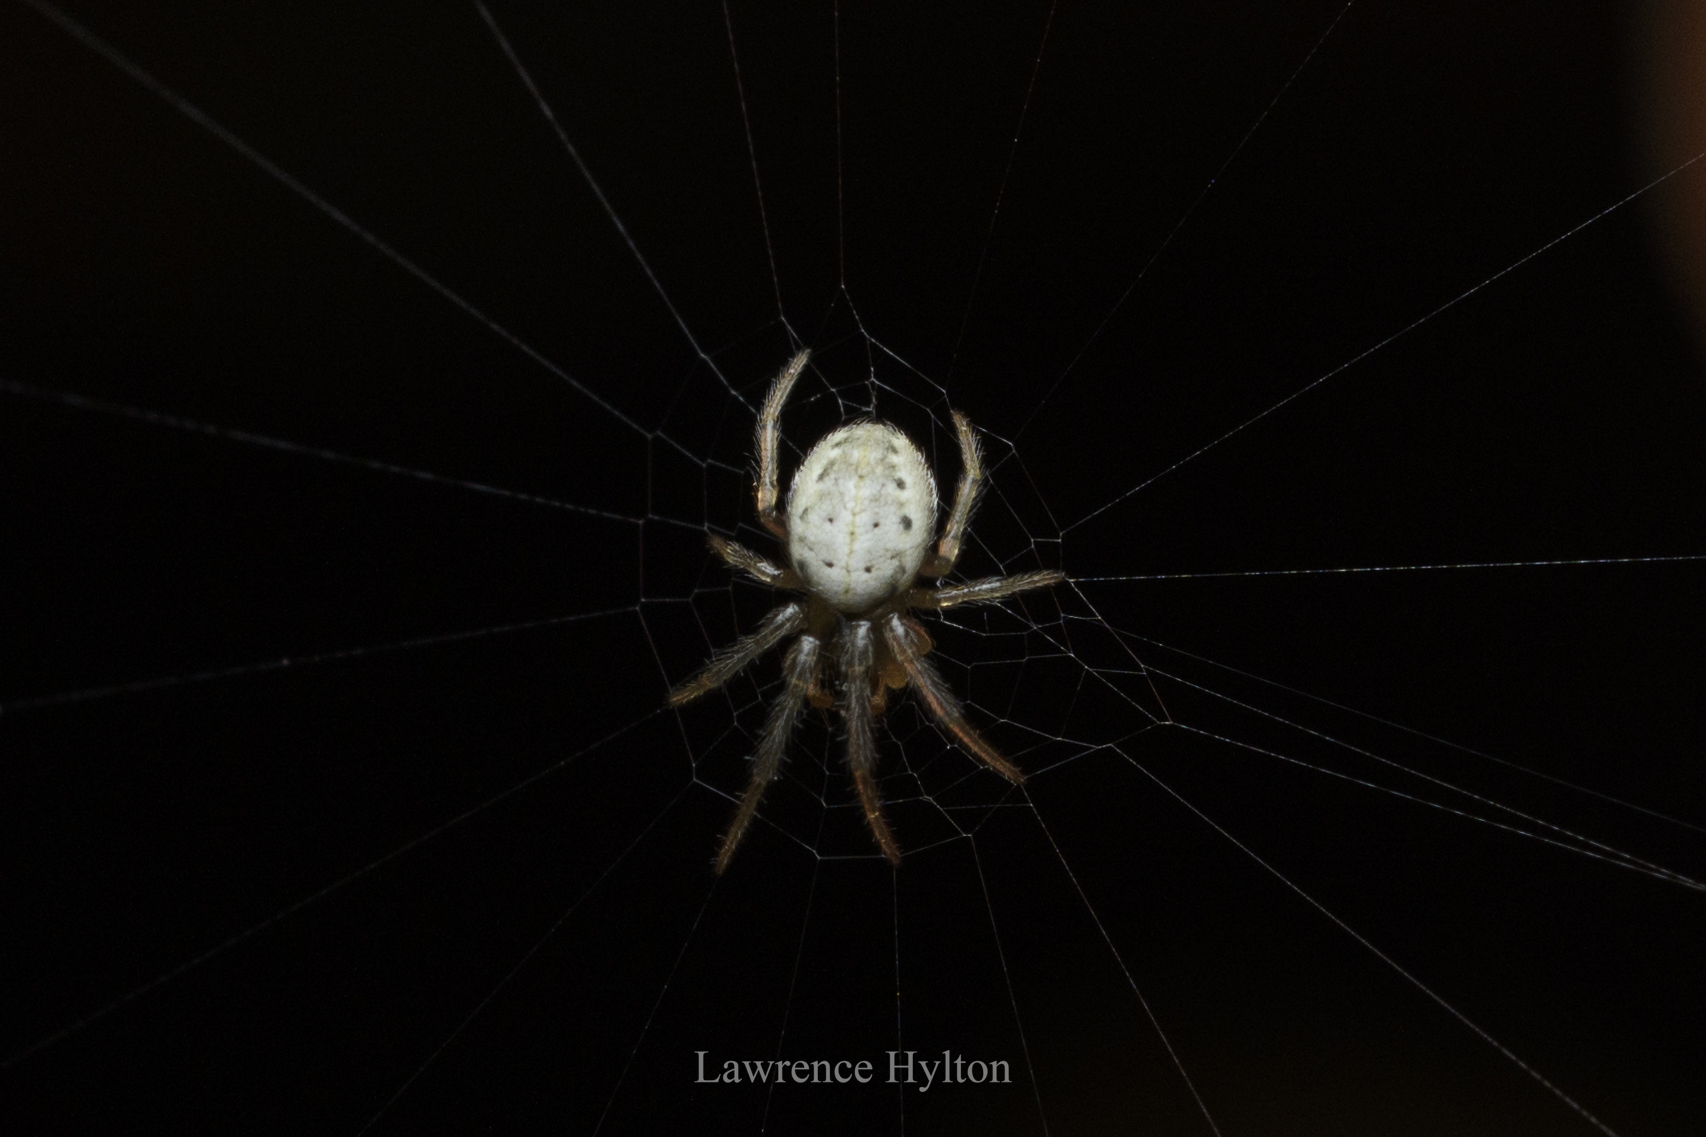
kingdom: Animalia
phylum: Arthropoda
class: Arachnida
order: Araneae
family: Araneidae
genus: Neoscona
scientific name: Neoscona inusta
